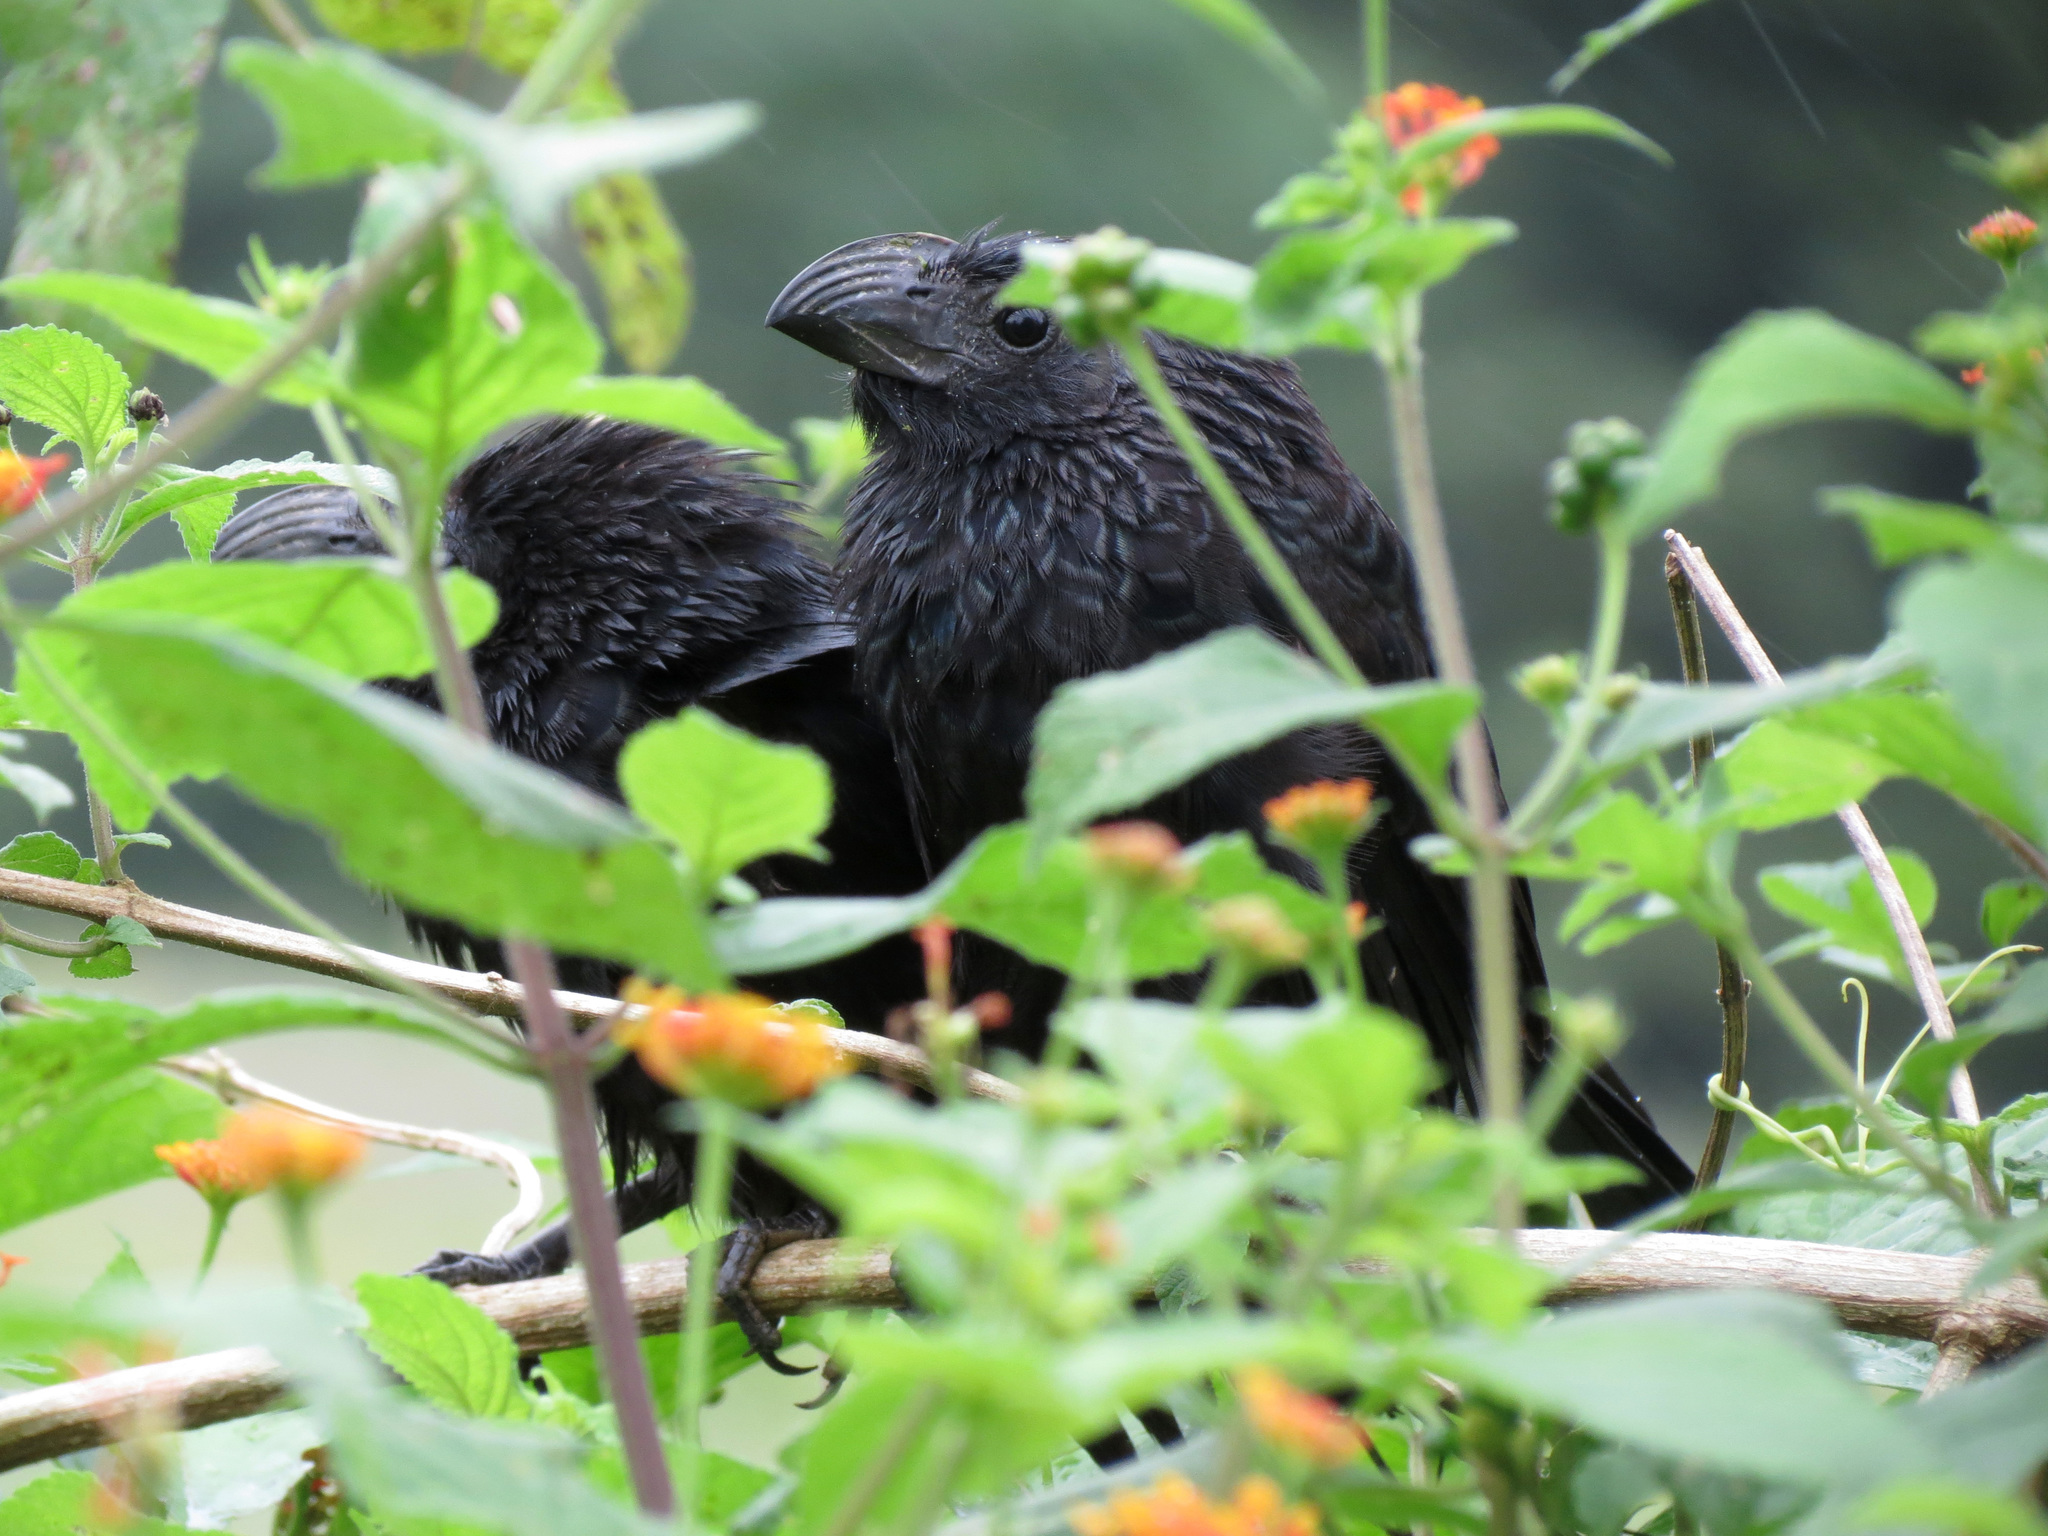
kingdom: Animalia
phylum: Chordata
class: Aves
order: Cuculiformes
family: Cuculidae
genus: Crotophaga
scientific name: Crotophaga sulcirostris
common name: Groove-billed ani
